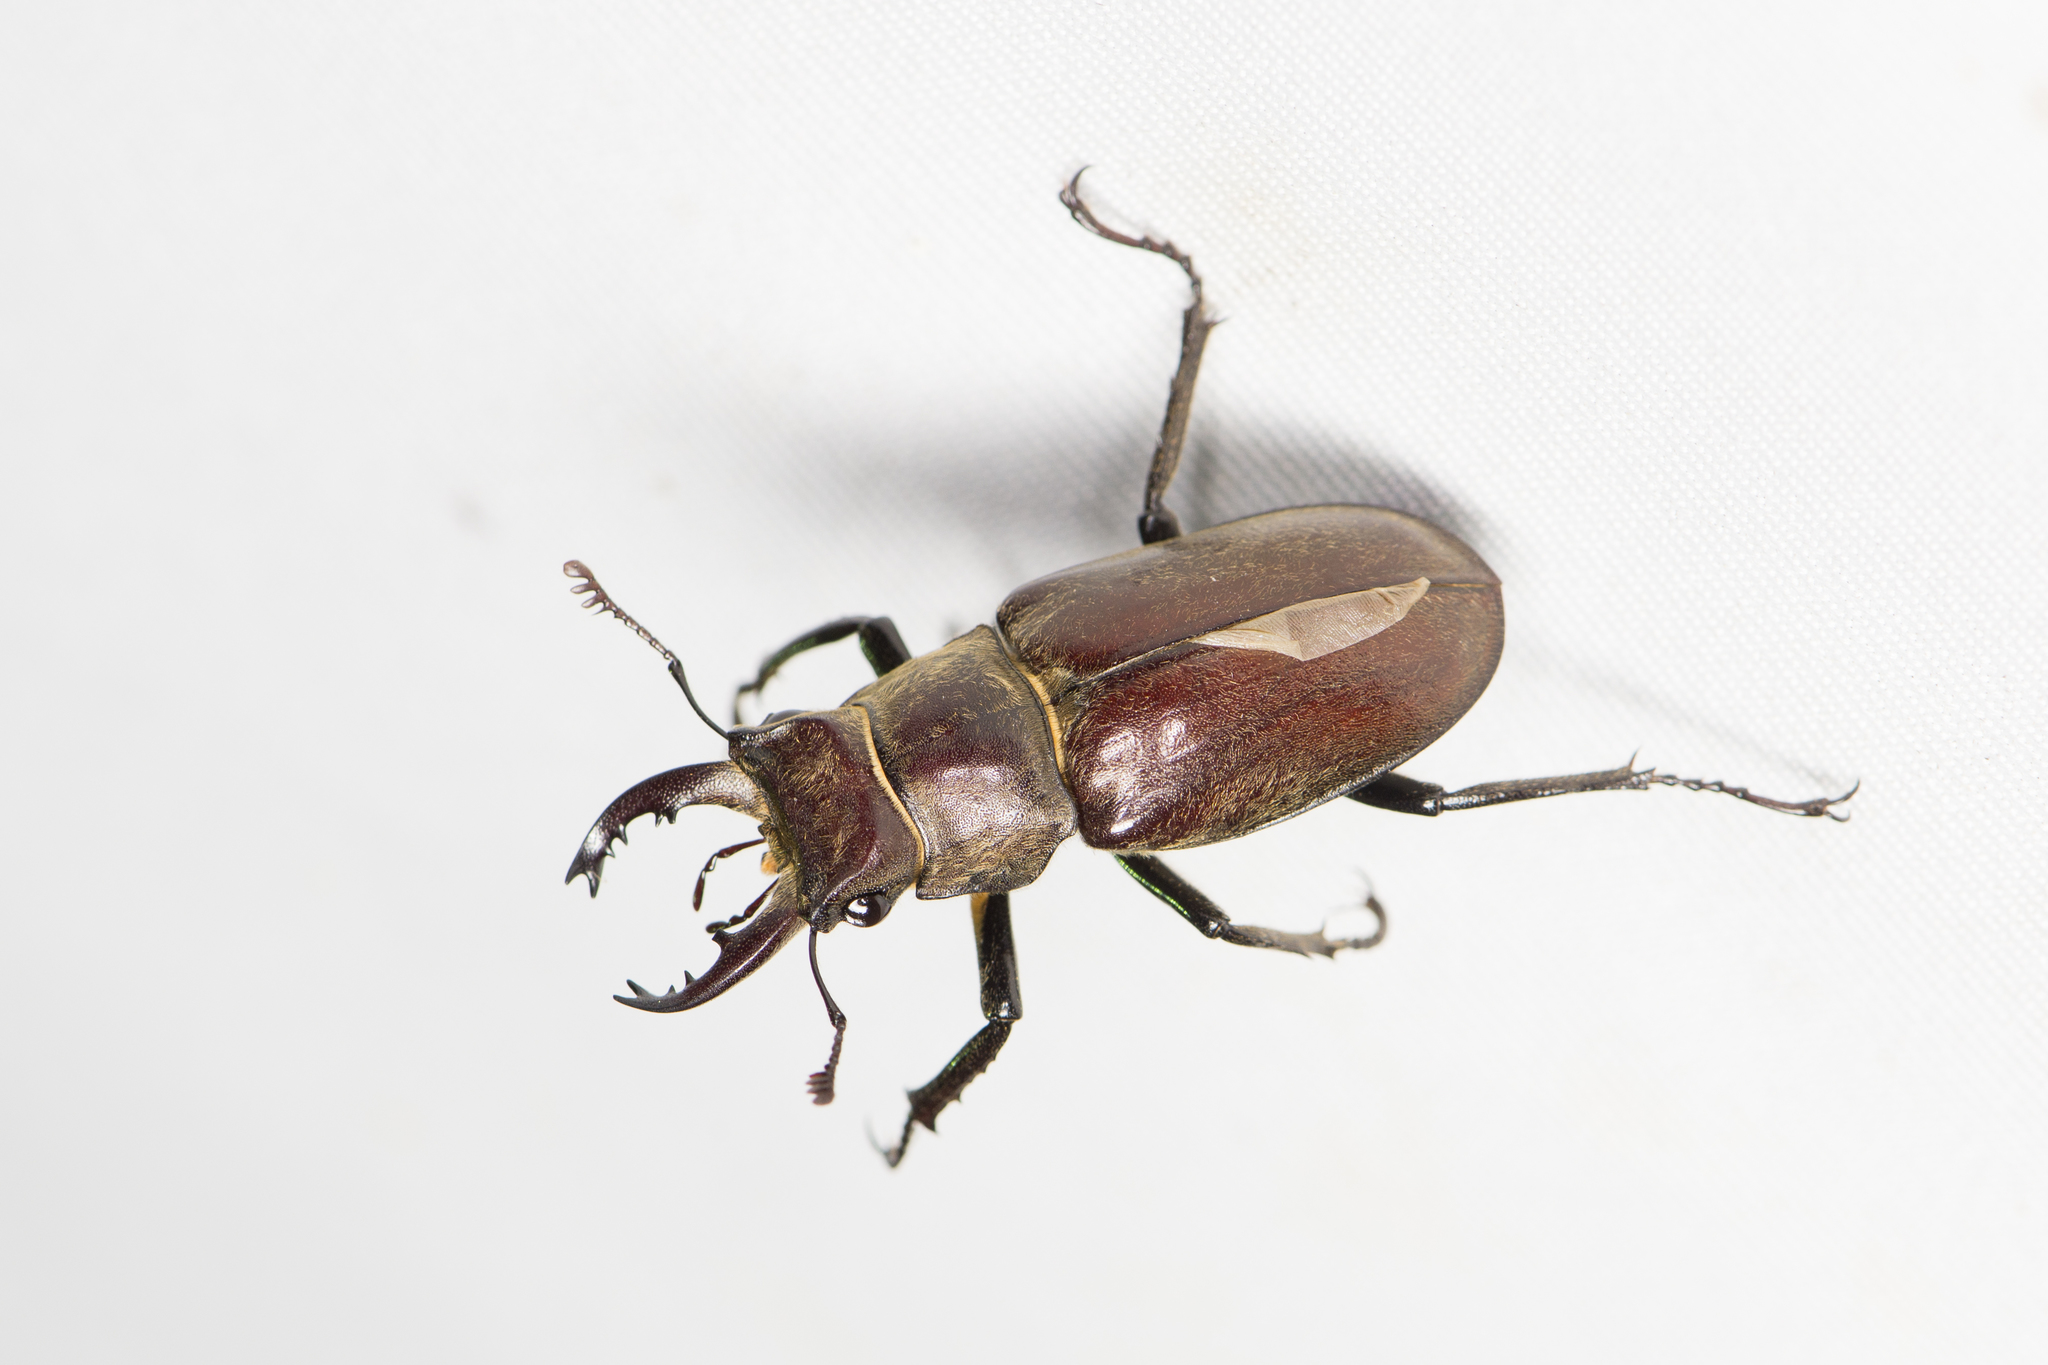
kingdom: Animalia
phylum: Arthropoda
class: Insecta
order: Coleoptera
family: Lucanidae
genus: Lucanus
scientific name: Lucanus kurosawai
